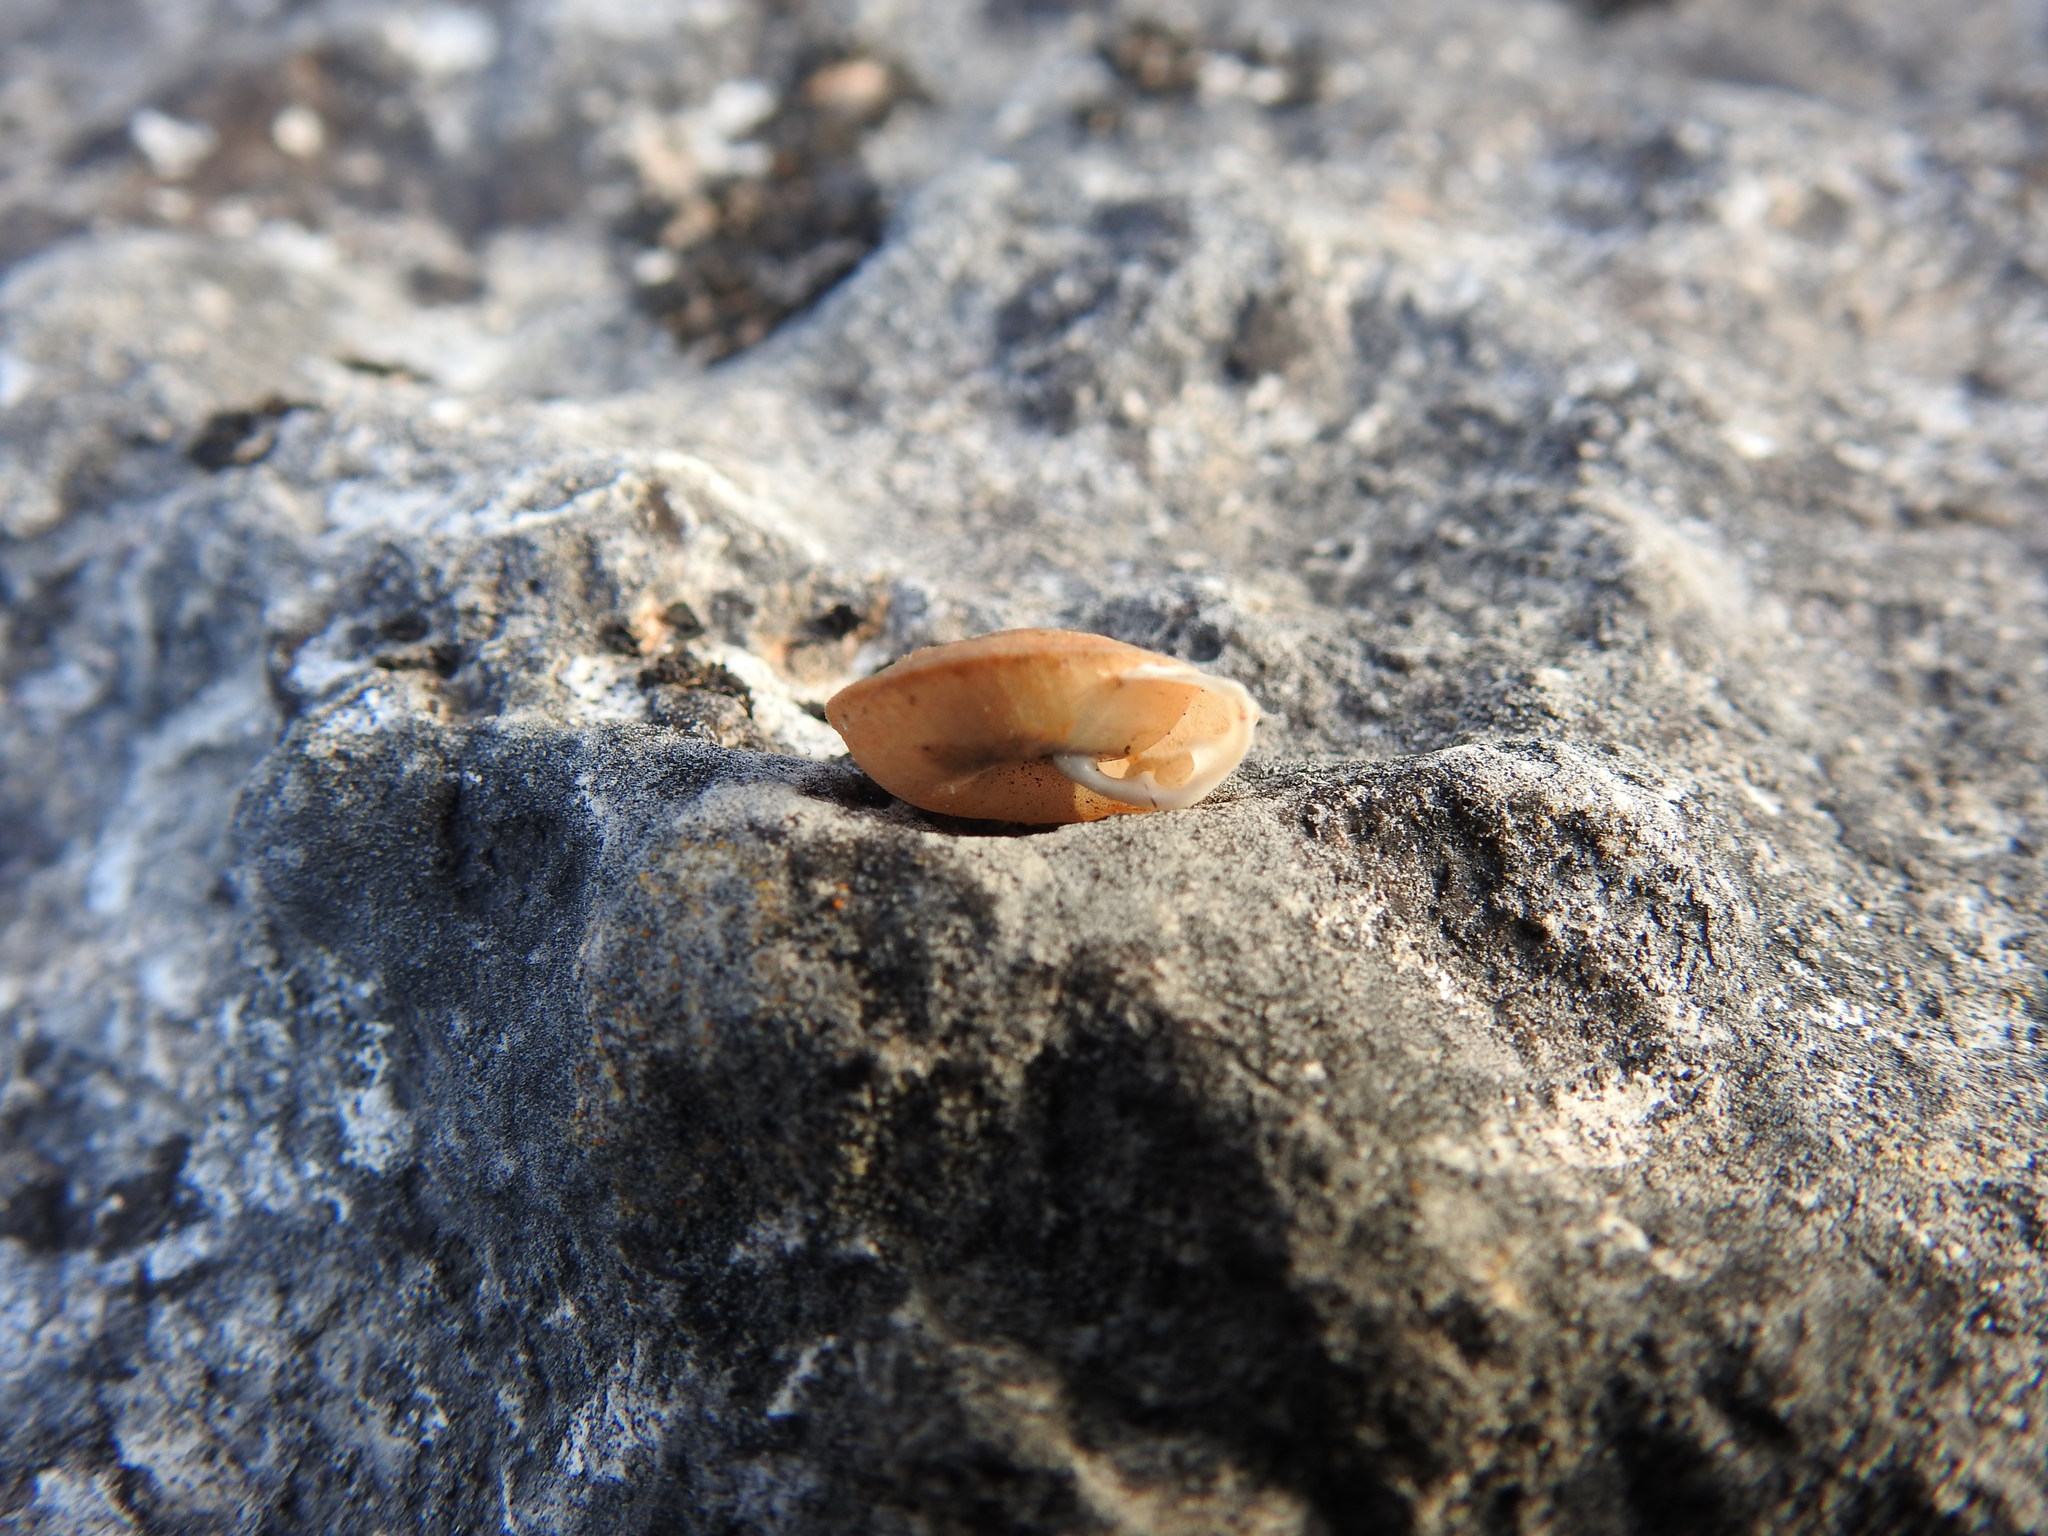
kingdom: Animalia
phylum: Mollusca
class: Gastropoda
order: Stylommatophora
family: Trissexodontidae
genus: Gittenbergeria
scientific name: Gittenbergeria turriplana
